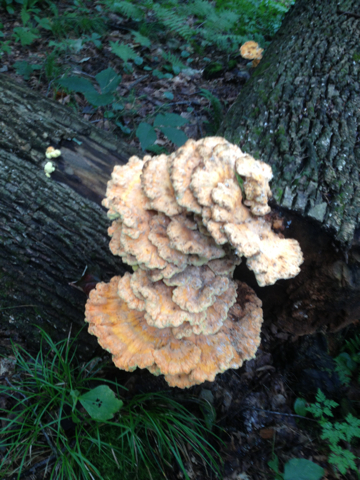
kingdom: Fungi
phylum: Basidiomycota
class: Agaricomycetes
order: Polyporales
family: Laetiporaceae
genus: Laetiporus
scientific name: Laetiporus sulphureus
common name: Chicken of the woods
